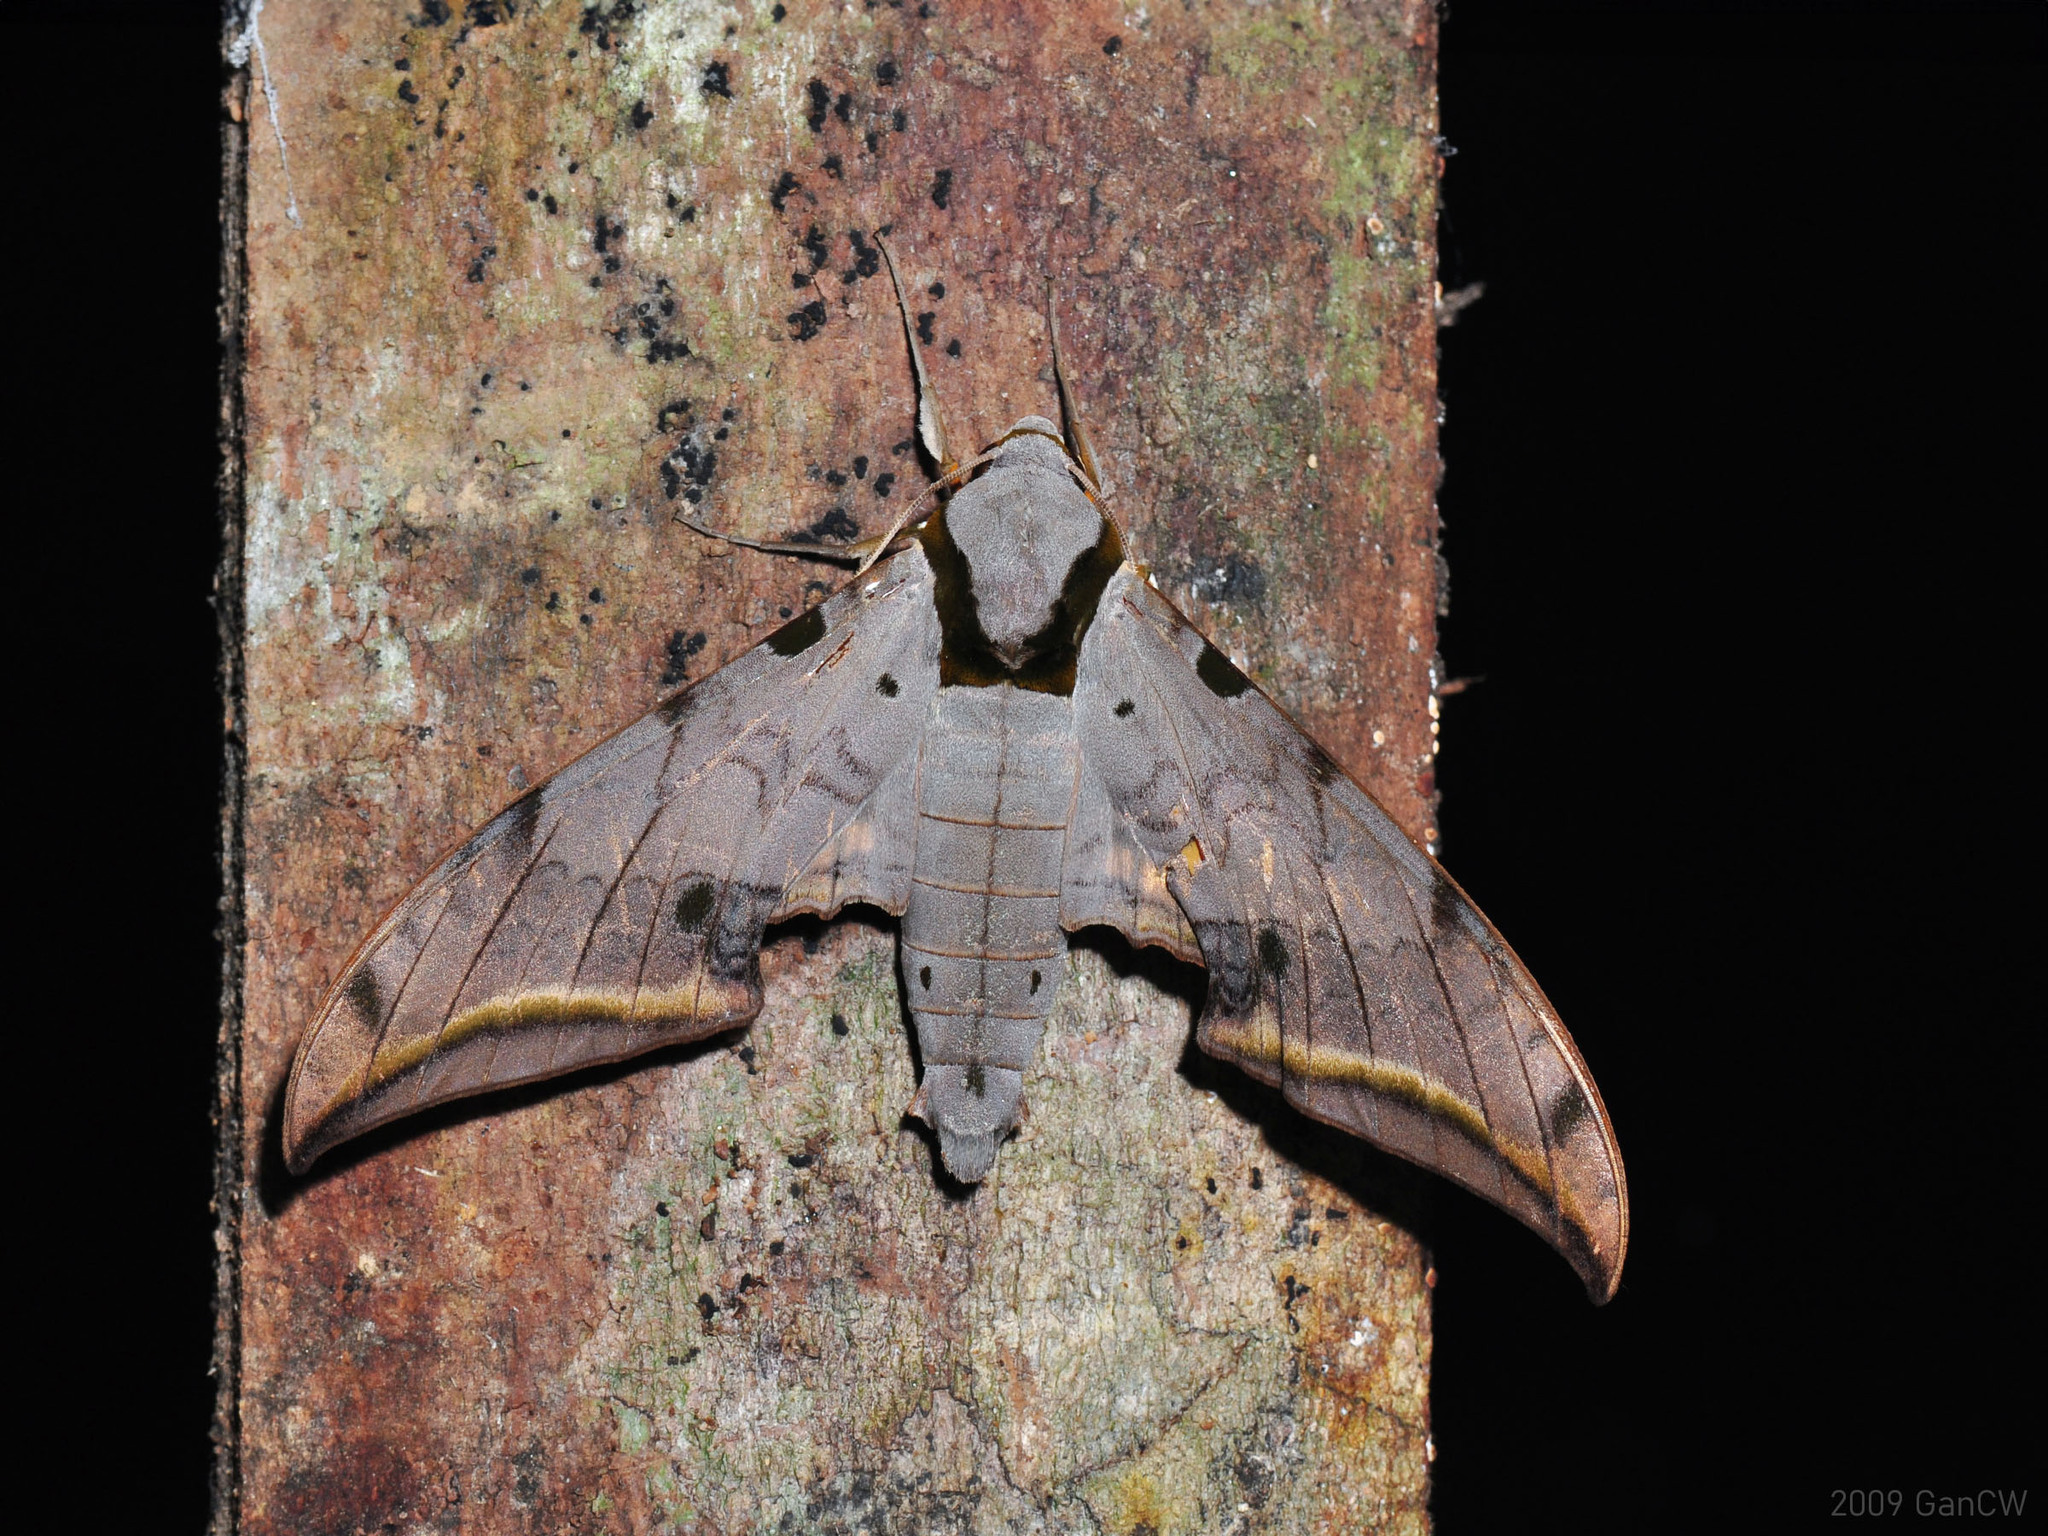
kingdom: Animalia
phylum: Arthropoda
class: Insecta
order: Lepidoptera
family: Sphingidae
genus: Ambulyx
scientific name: Ambulyx sericeipennis
